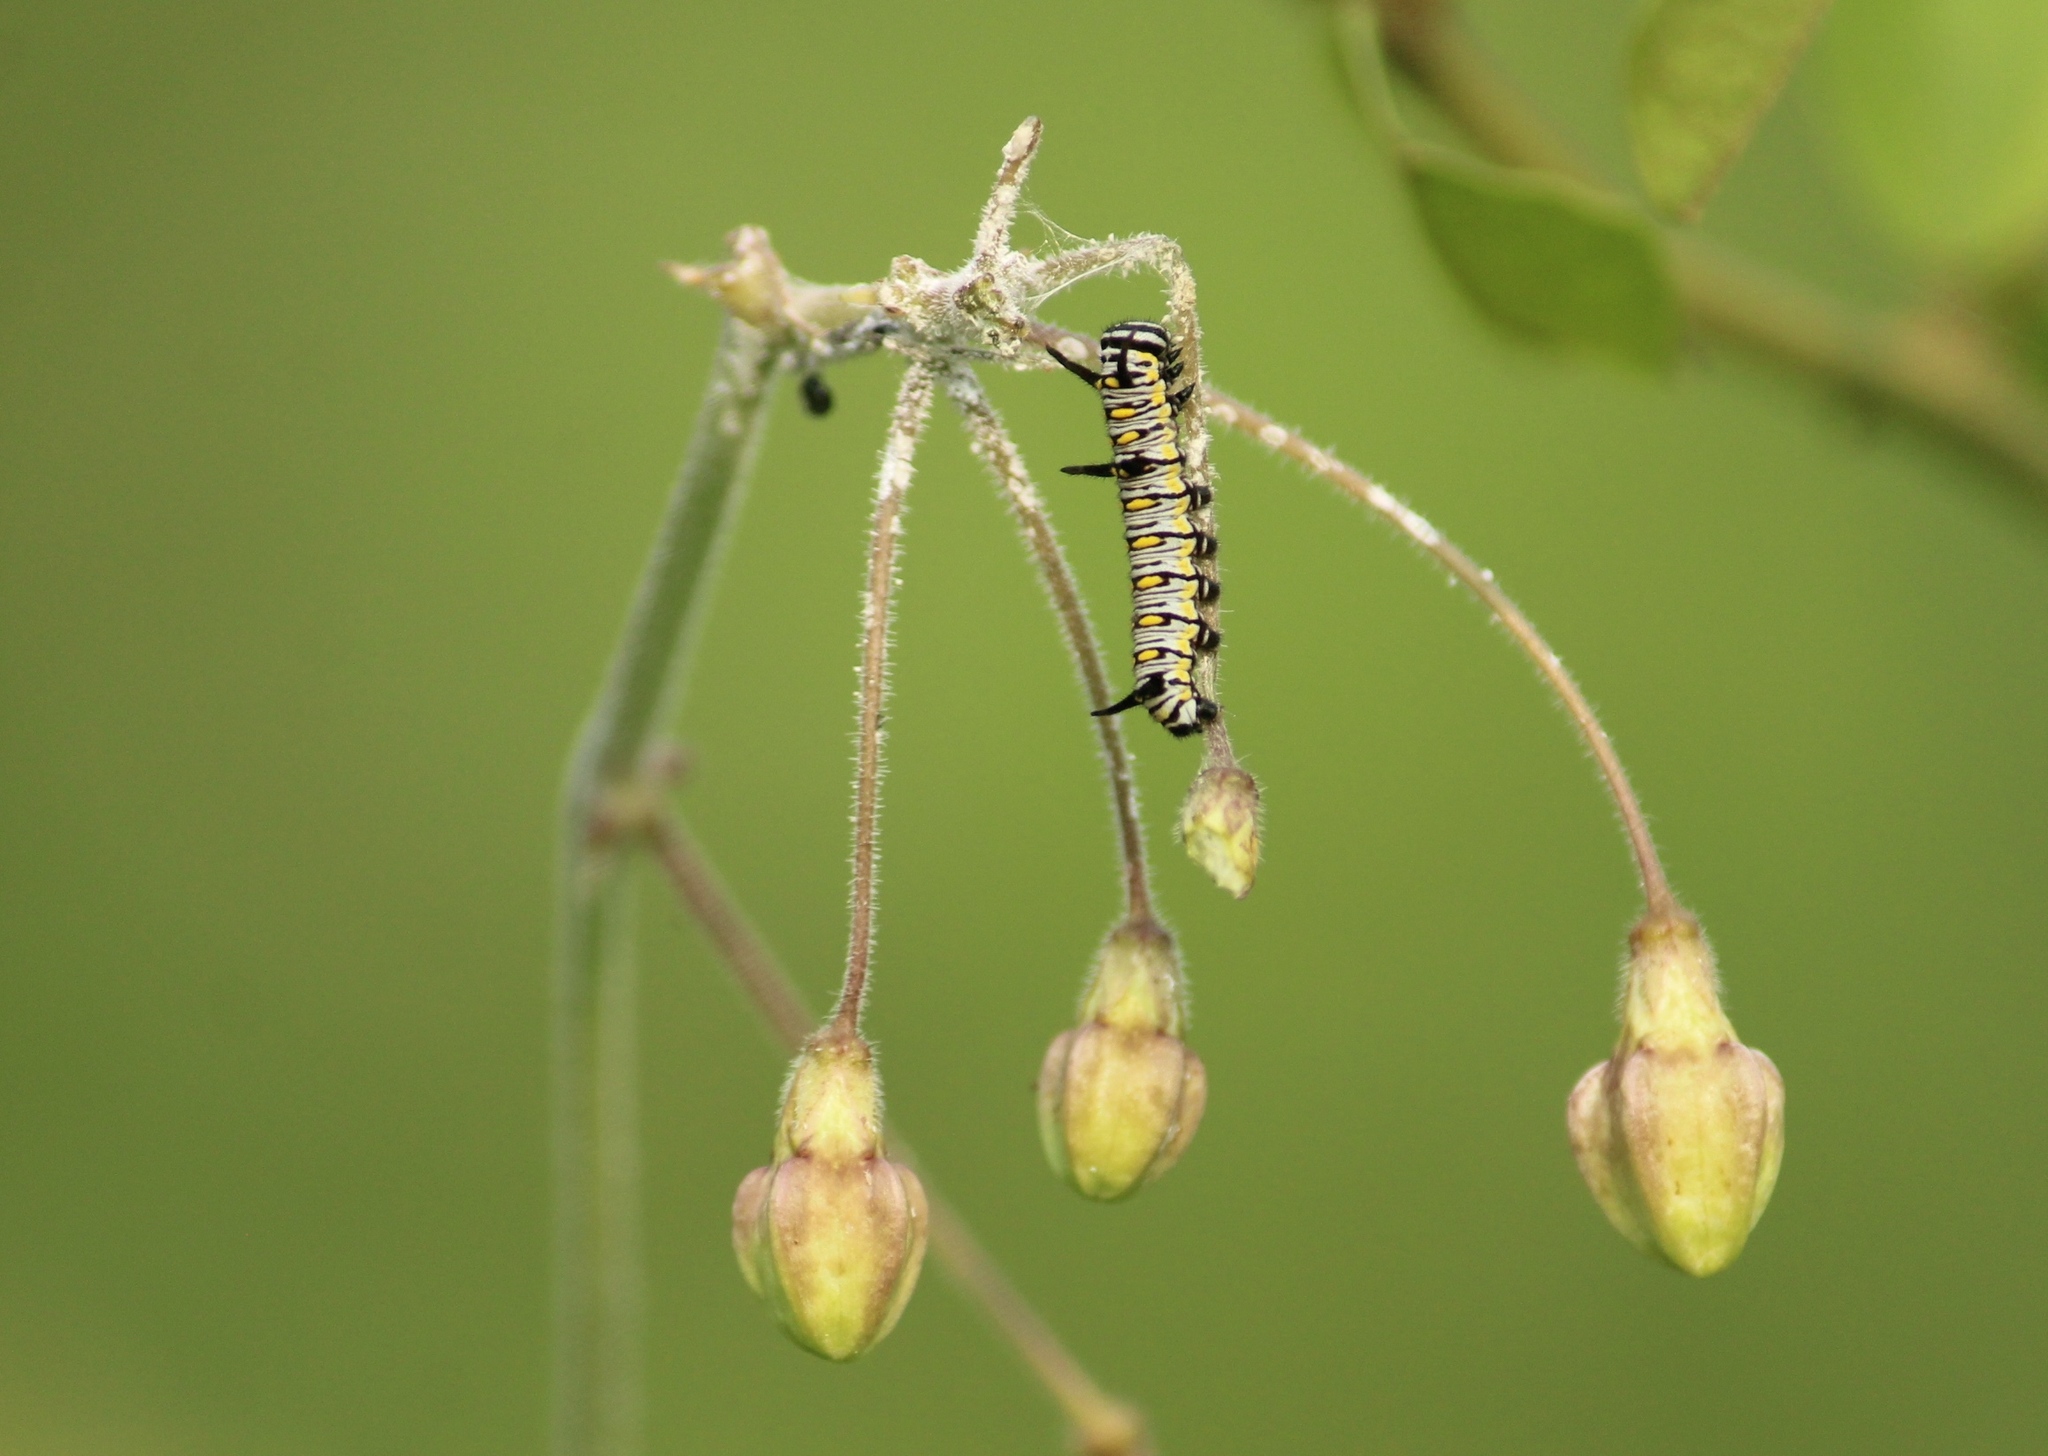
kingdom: Animalia
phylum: Arthropoda
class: Insecta
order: Lepidoptera
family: Nymphalidae
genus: Danaus
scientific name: Danaus chrysippus
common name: Plain tiger
